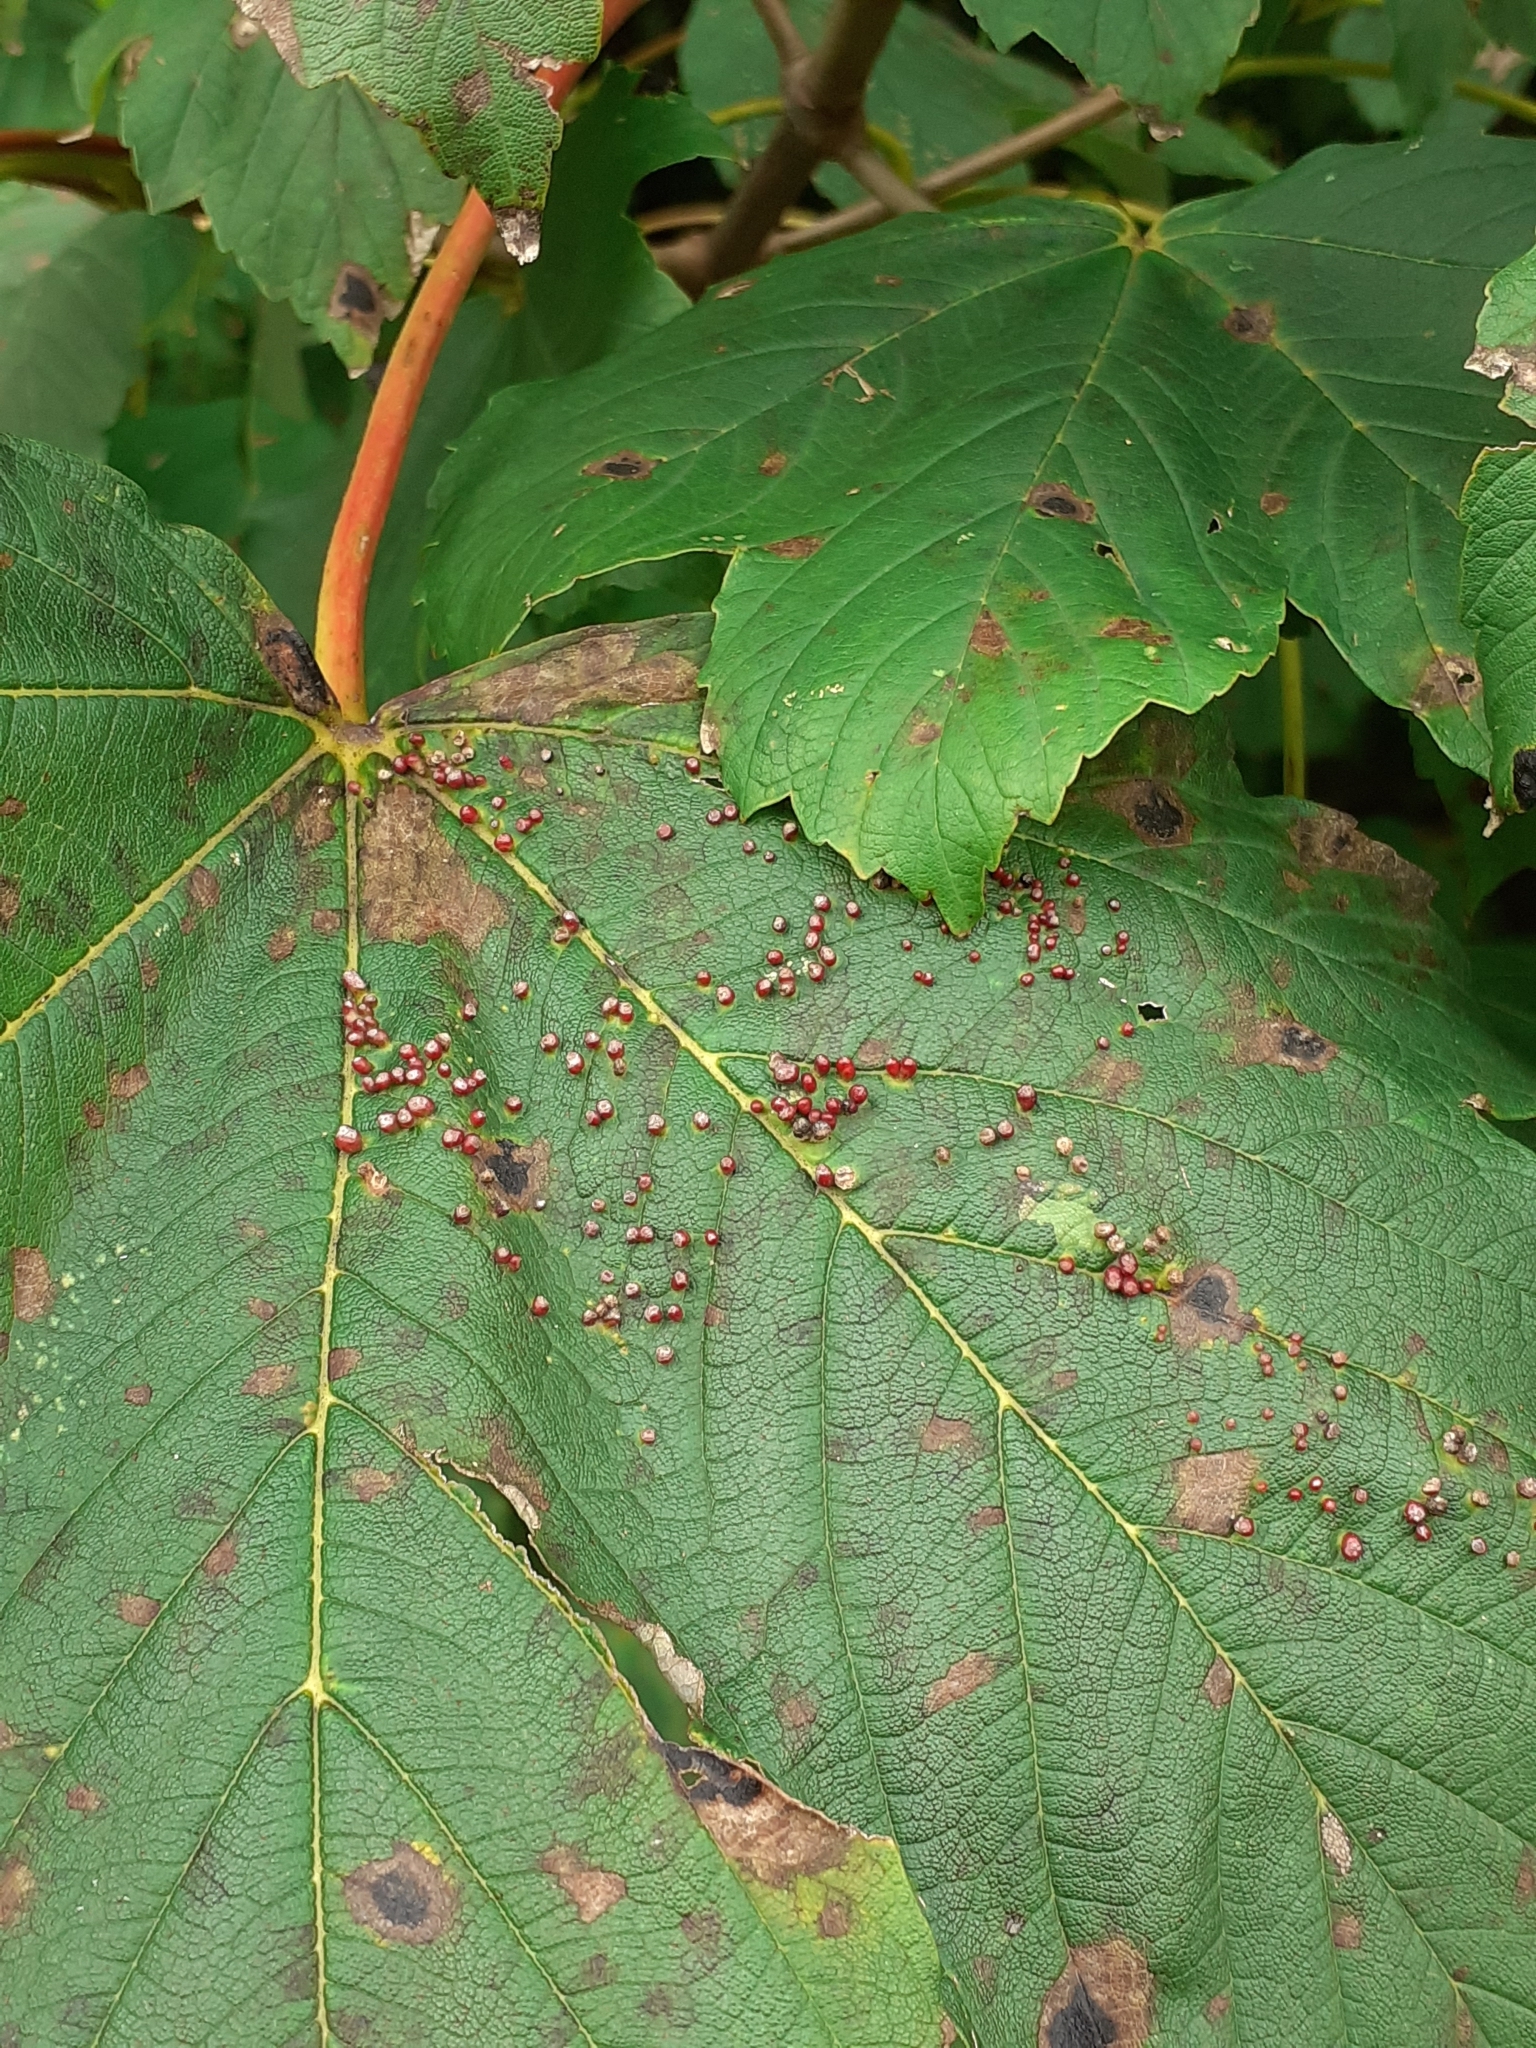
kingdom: Animalia
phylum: Arthropoda
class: Arachnida
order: Trombidiformes
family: Eriophyidae
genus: Aceria
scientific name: Aceria cephaloneus
